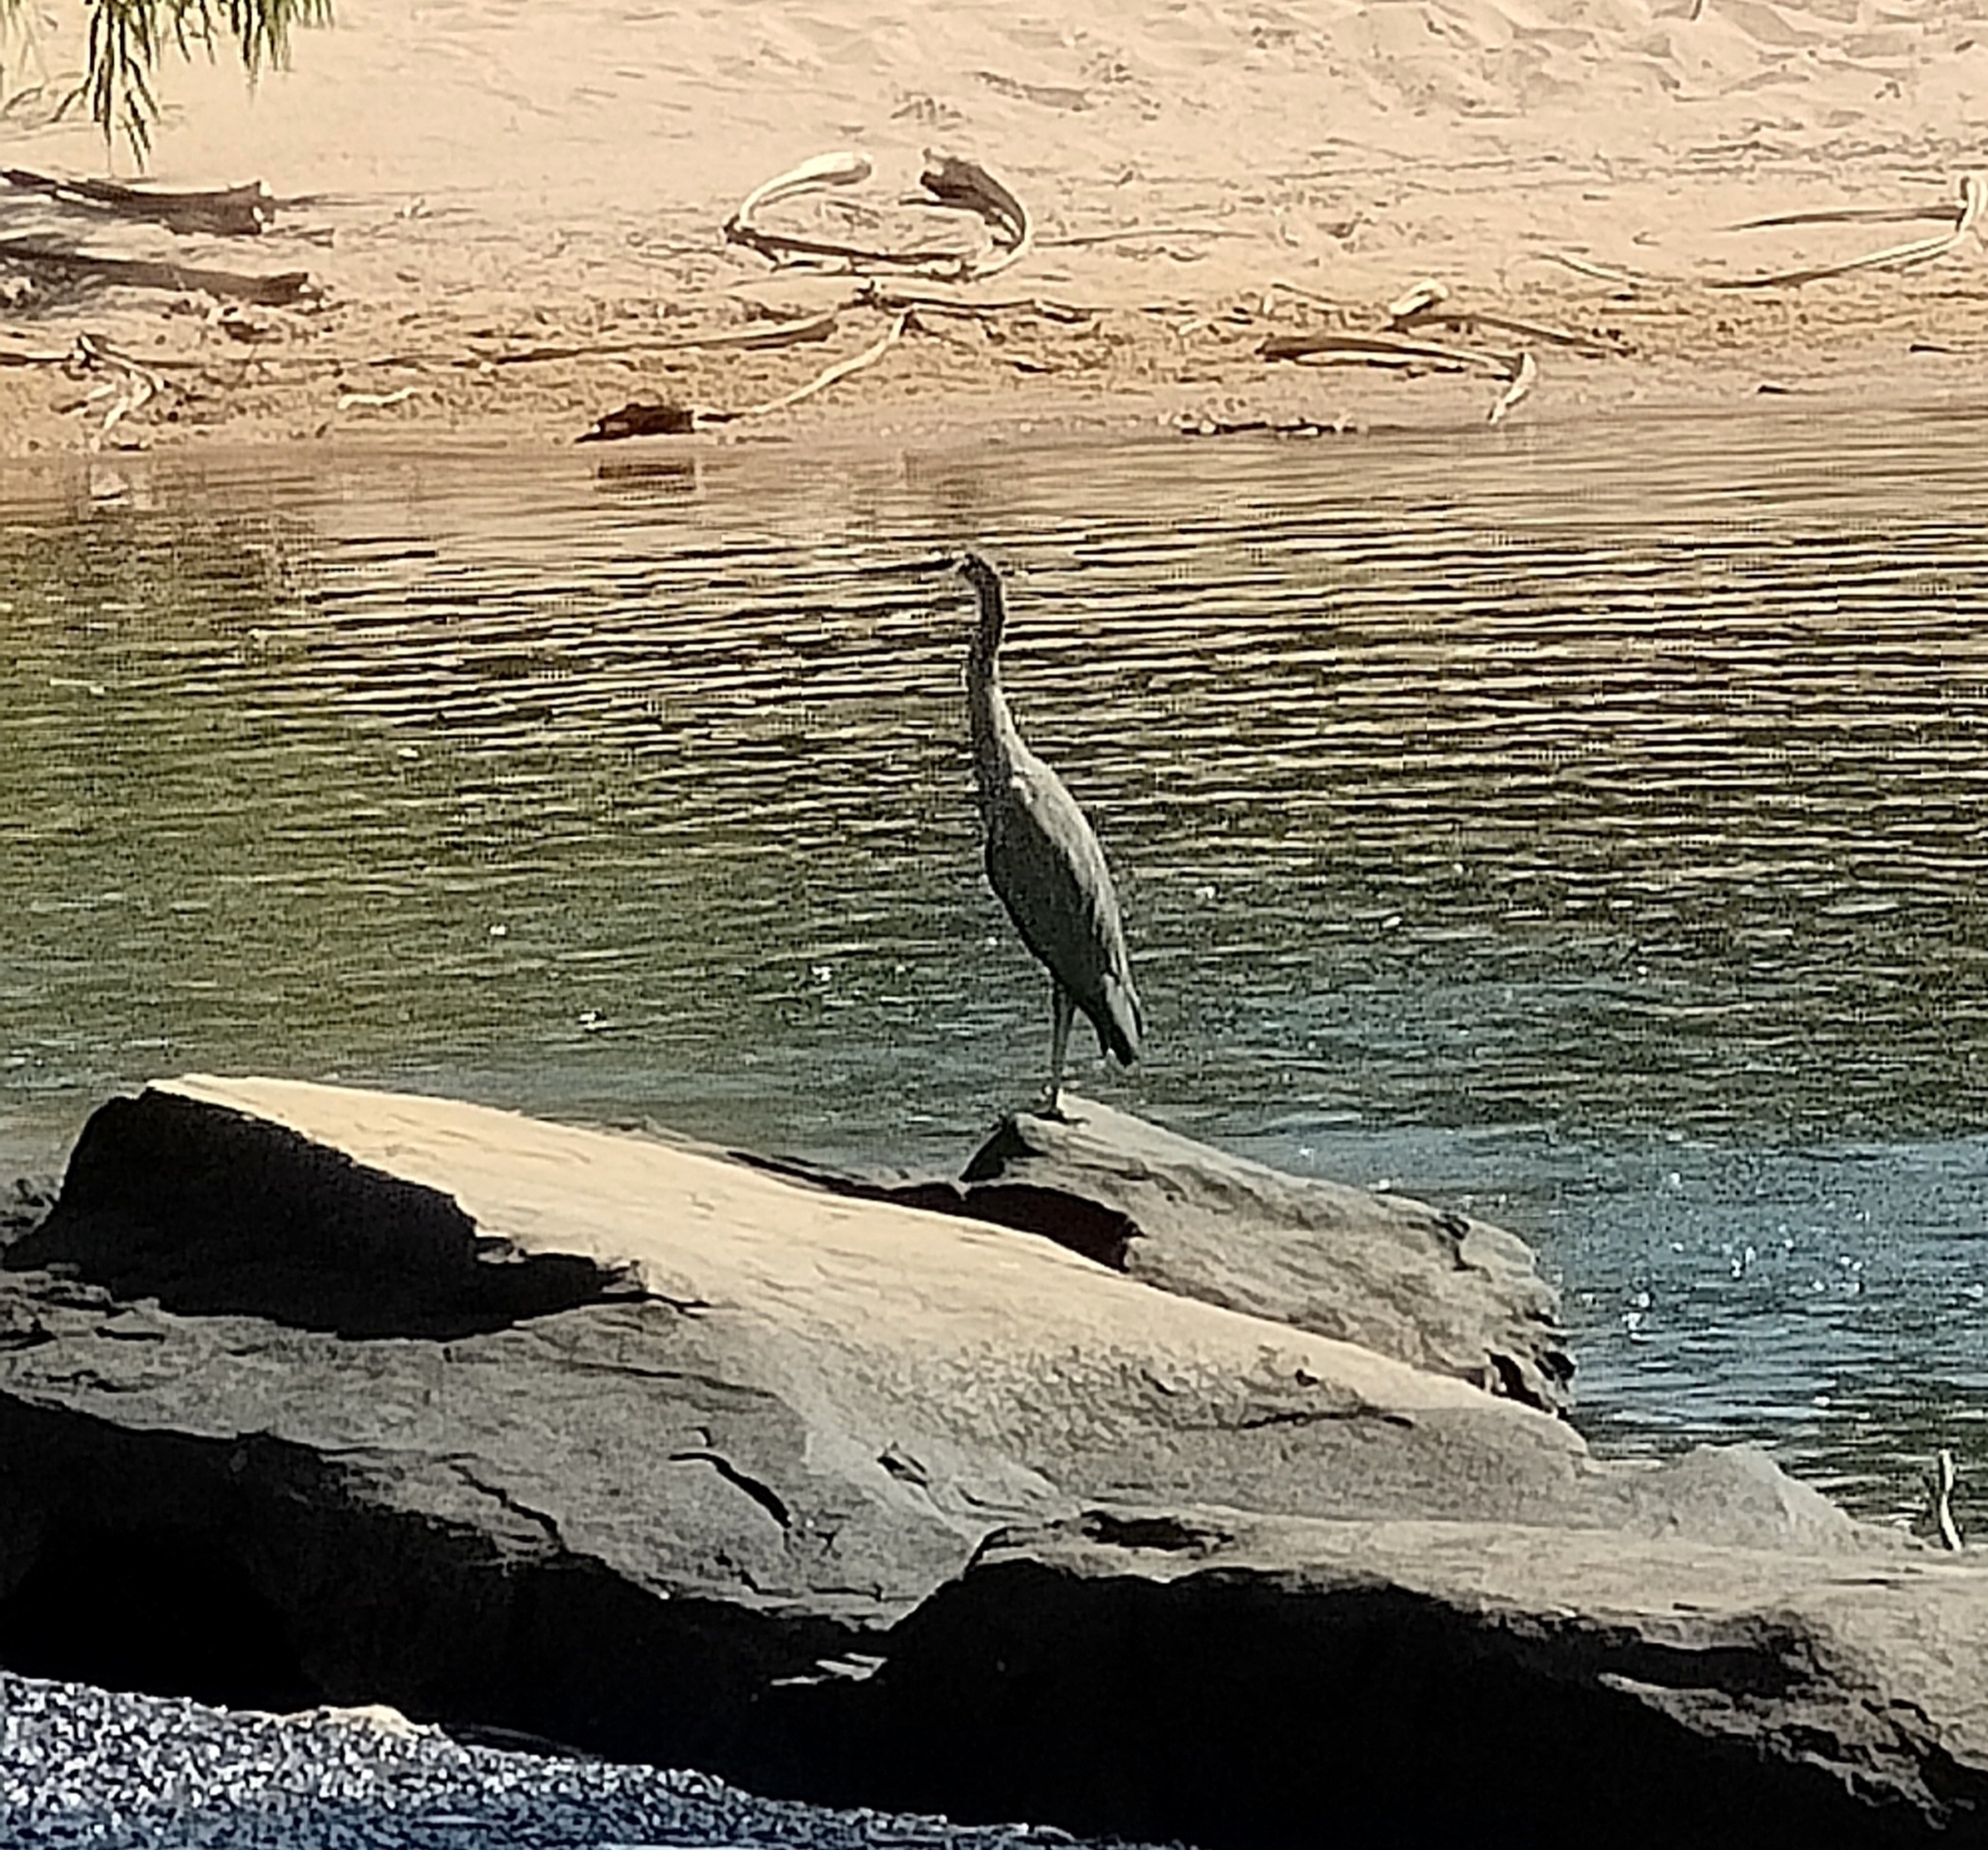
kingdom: Animalia
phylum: Chordata
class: Aves
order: Pelecaniformes
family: Ardeidae
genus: Egretta
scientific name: Egretta novaehollandiae
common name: White-faced heron
